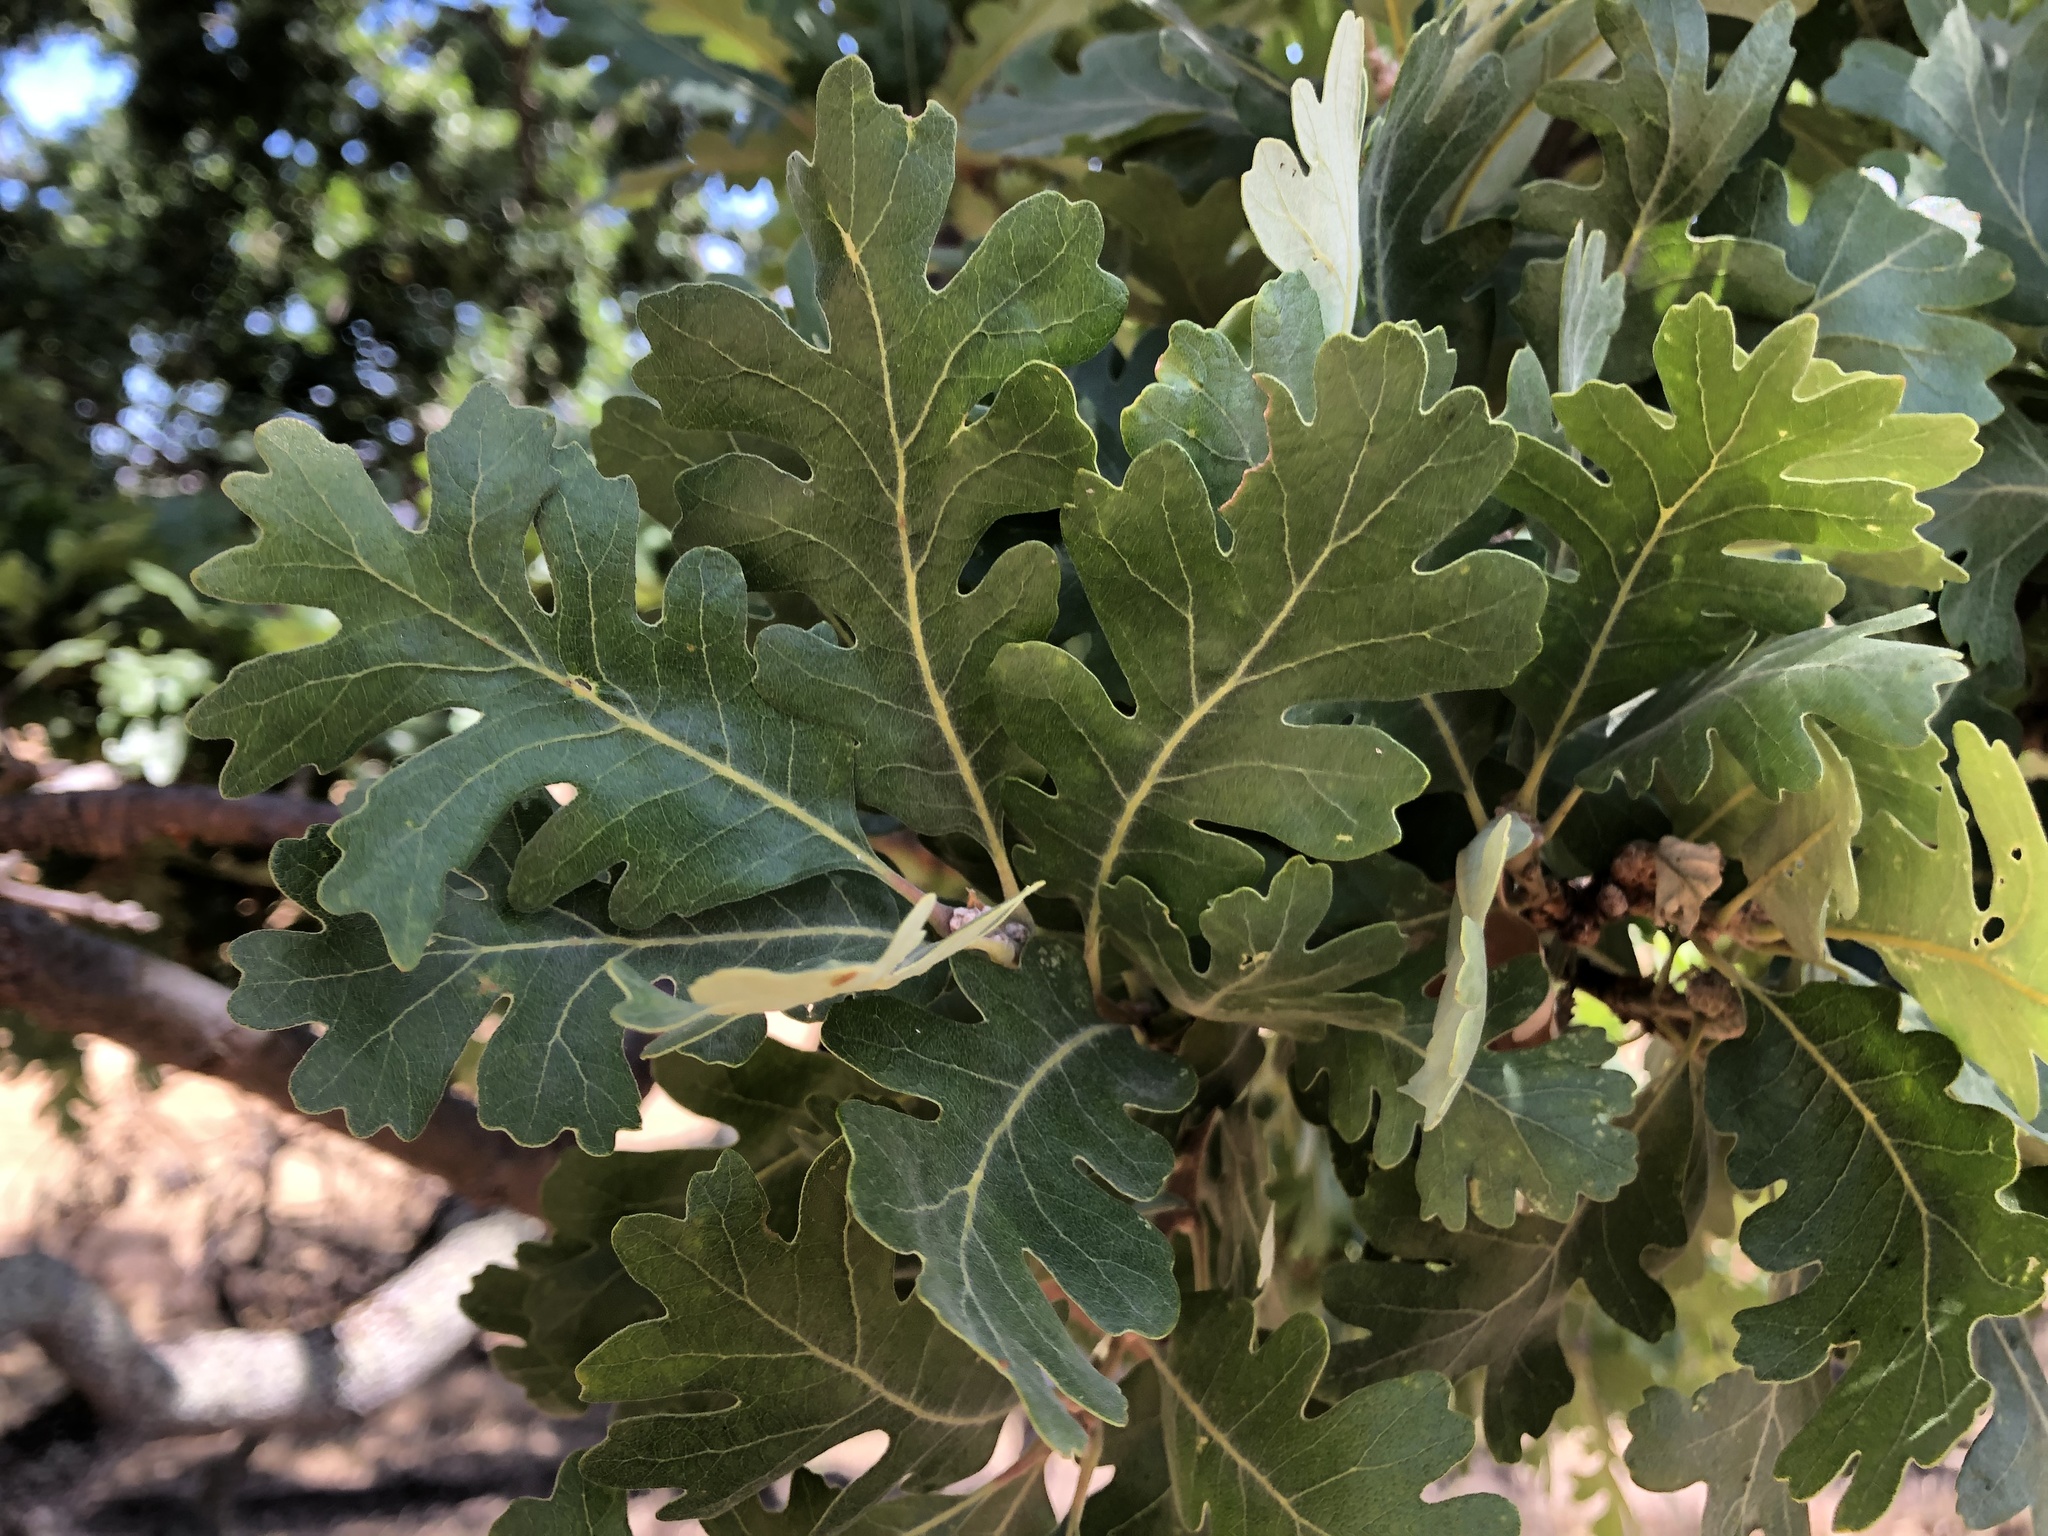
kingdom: Plantae
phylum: Tracheophyta
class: Magnoliopsida
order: Fagales
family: Fagaceae
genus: Quercus
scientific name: Quercus lobata
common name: Valley oak
